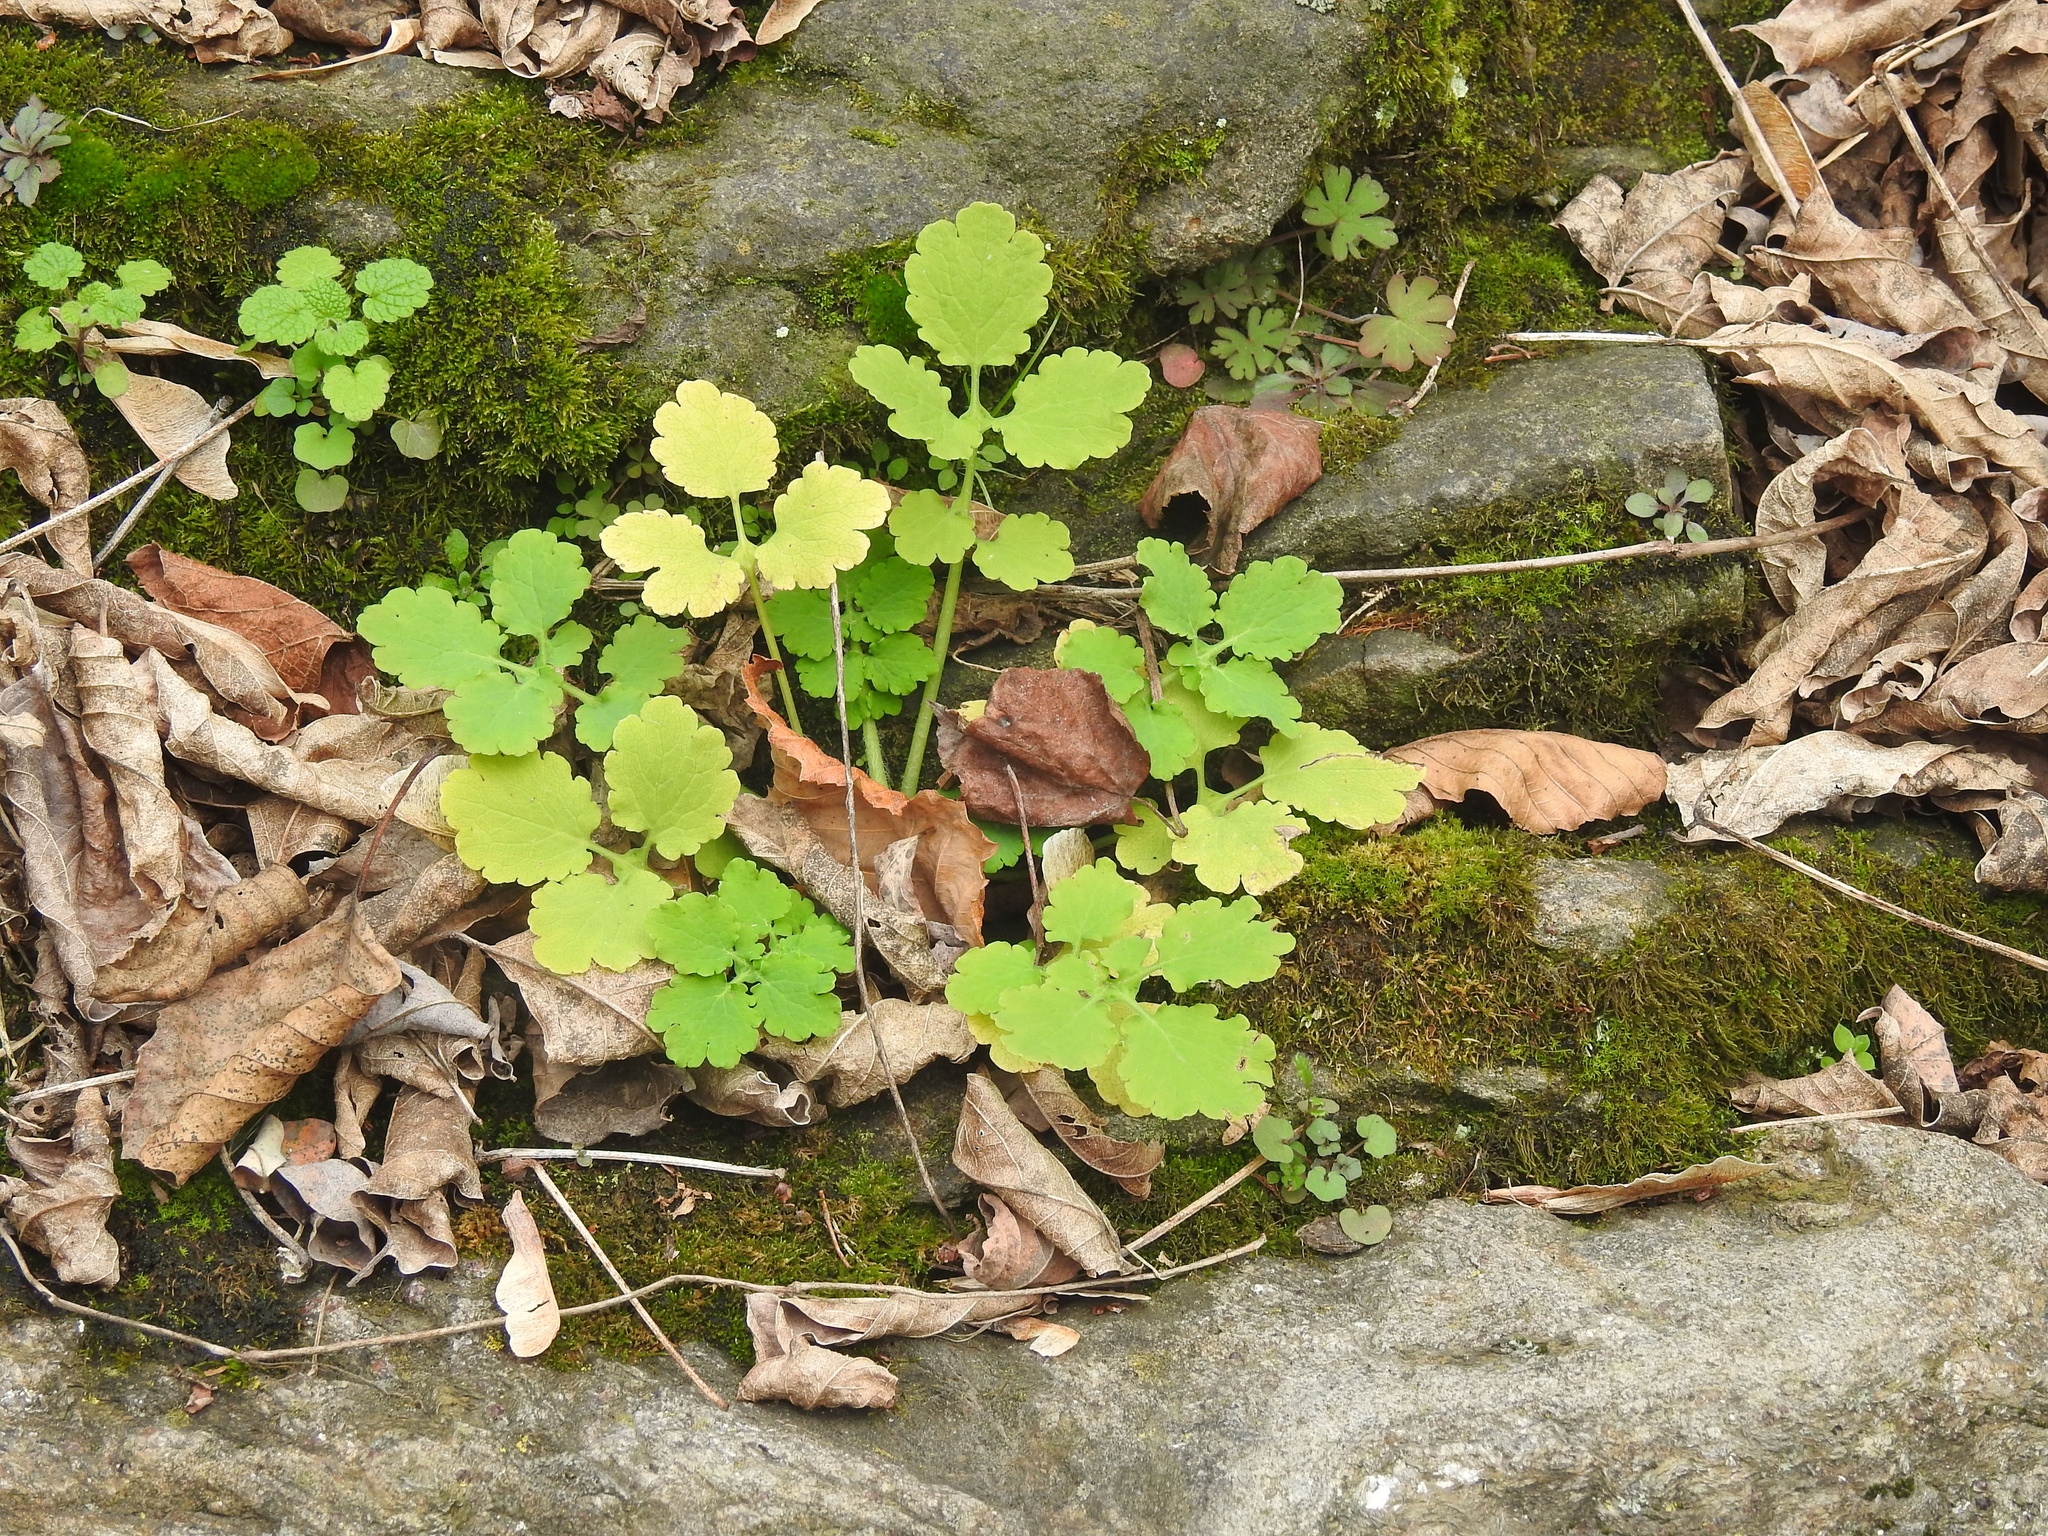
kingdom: Plantae
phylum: Tracheophyta
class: Magnoliopsida
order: Ranunculales
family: Papaveraceae
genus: Chelidonium
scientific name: Chelidonium majus
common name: Greater celandine
